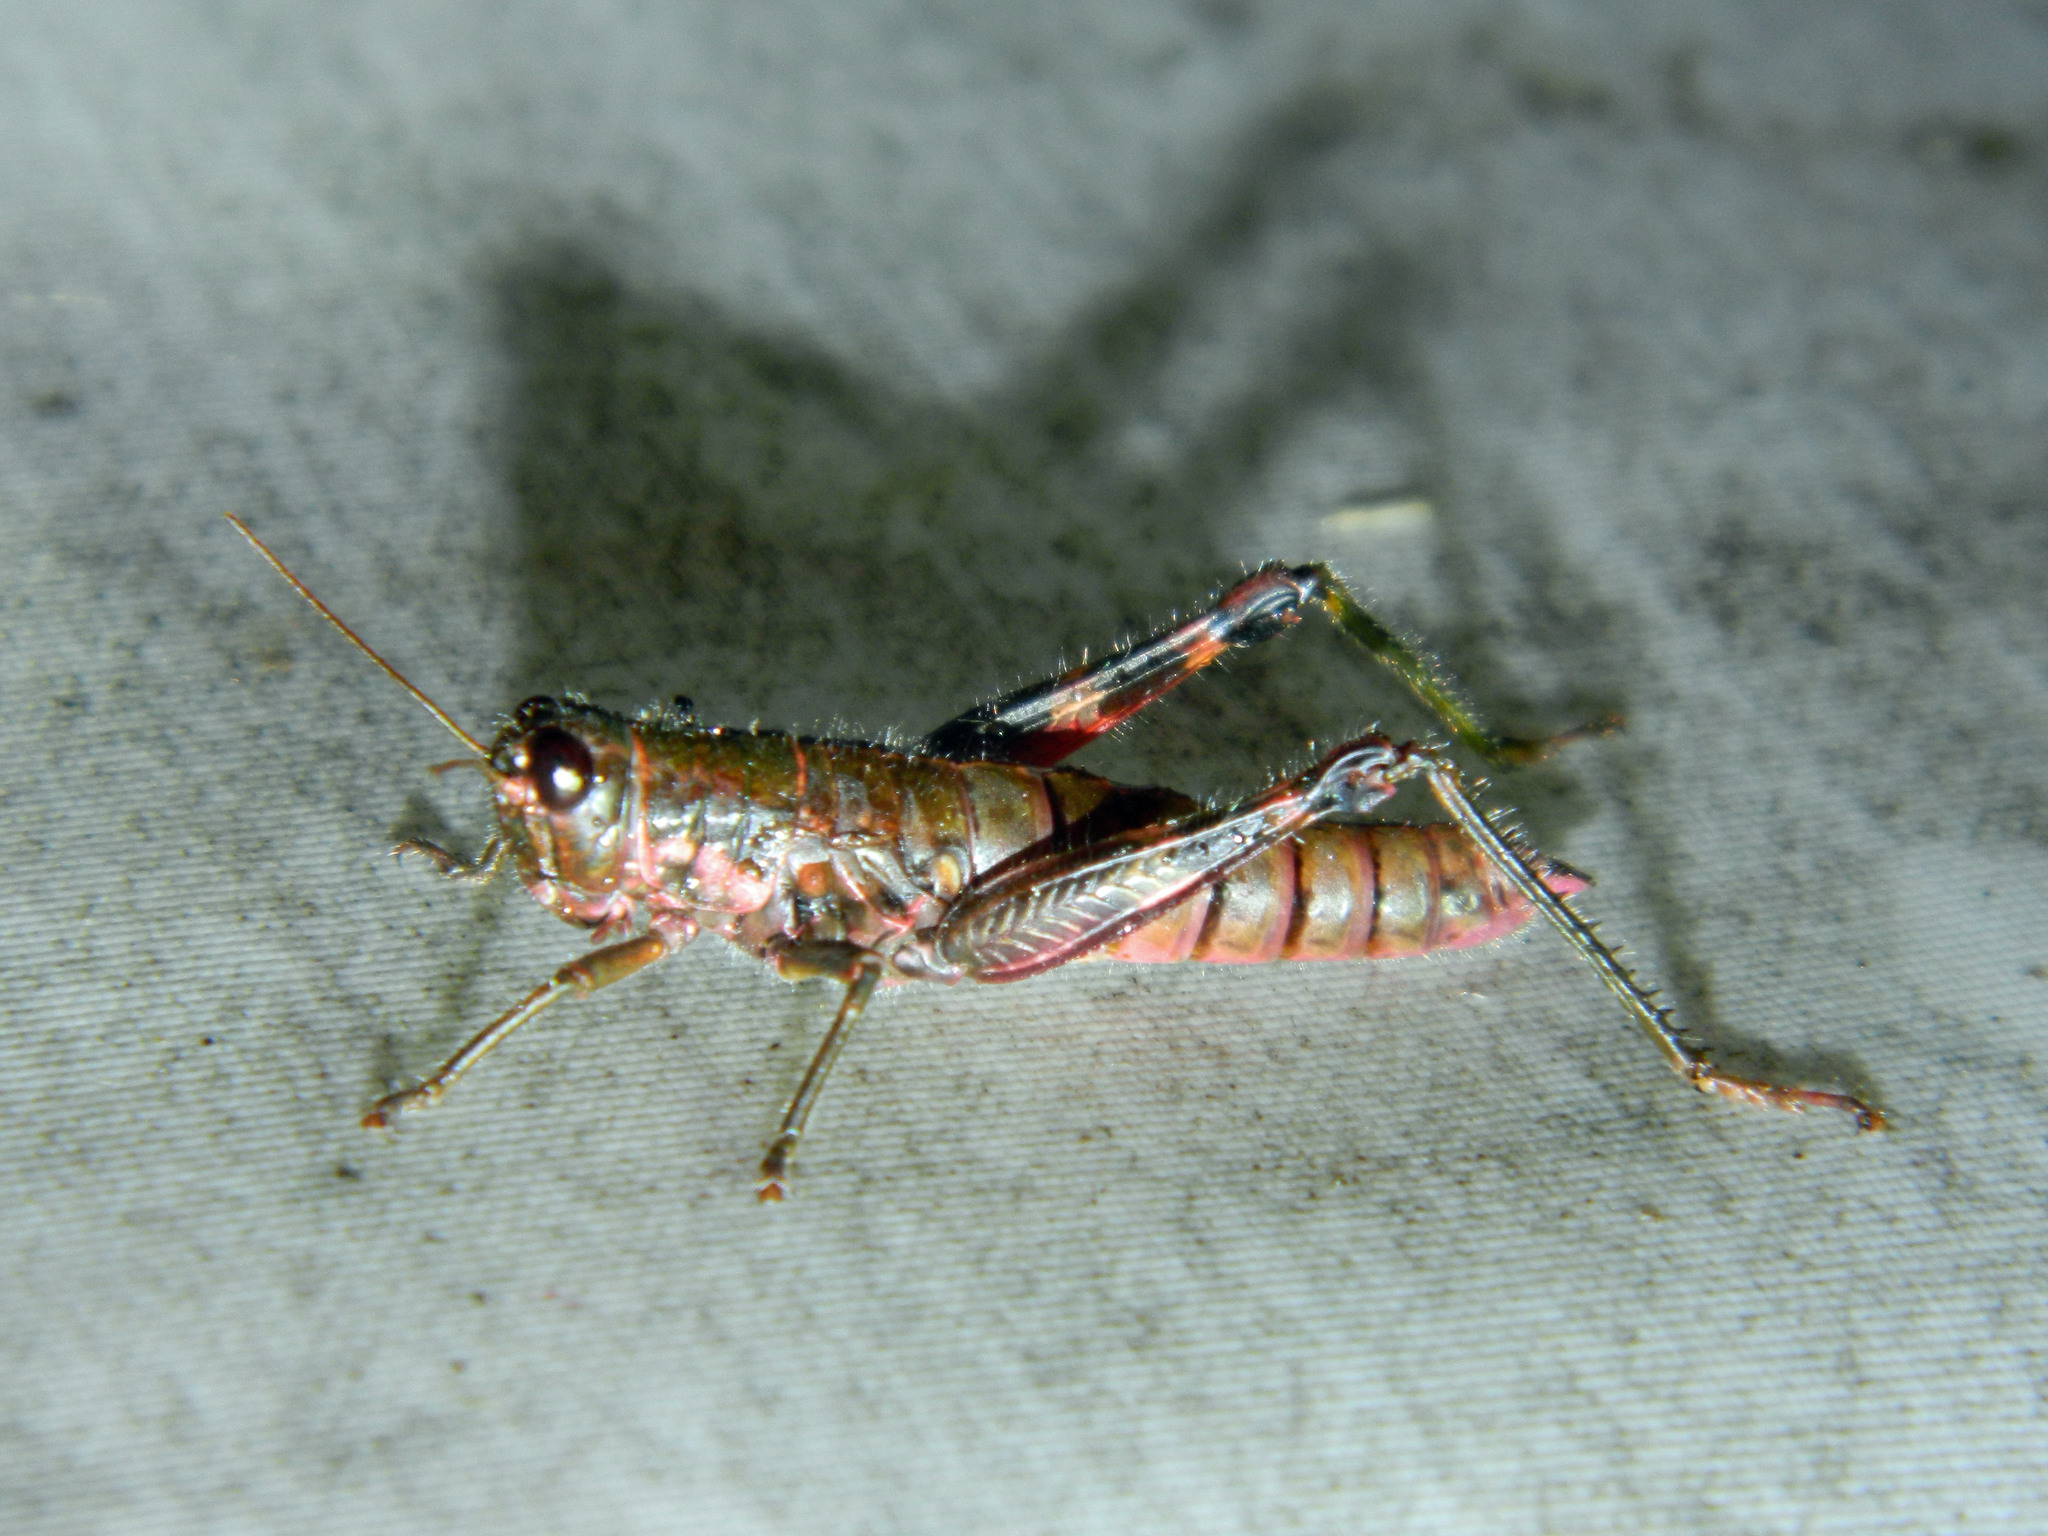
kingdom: Animalia
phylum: Arthropoda
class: Insecta
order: Orthoptera
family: Acrididae
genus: Booneacris
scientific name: Booneacris glacialis
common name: Wingless mountain grasshopper
